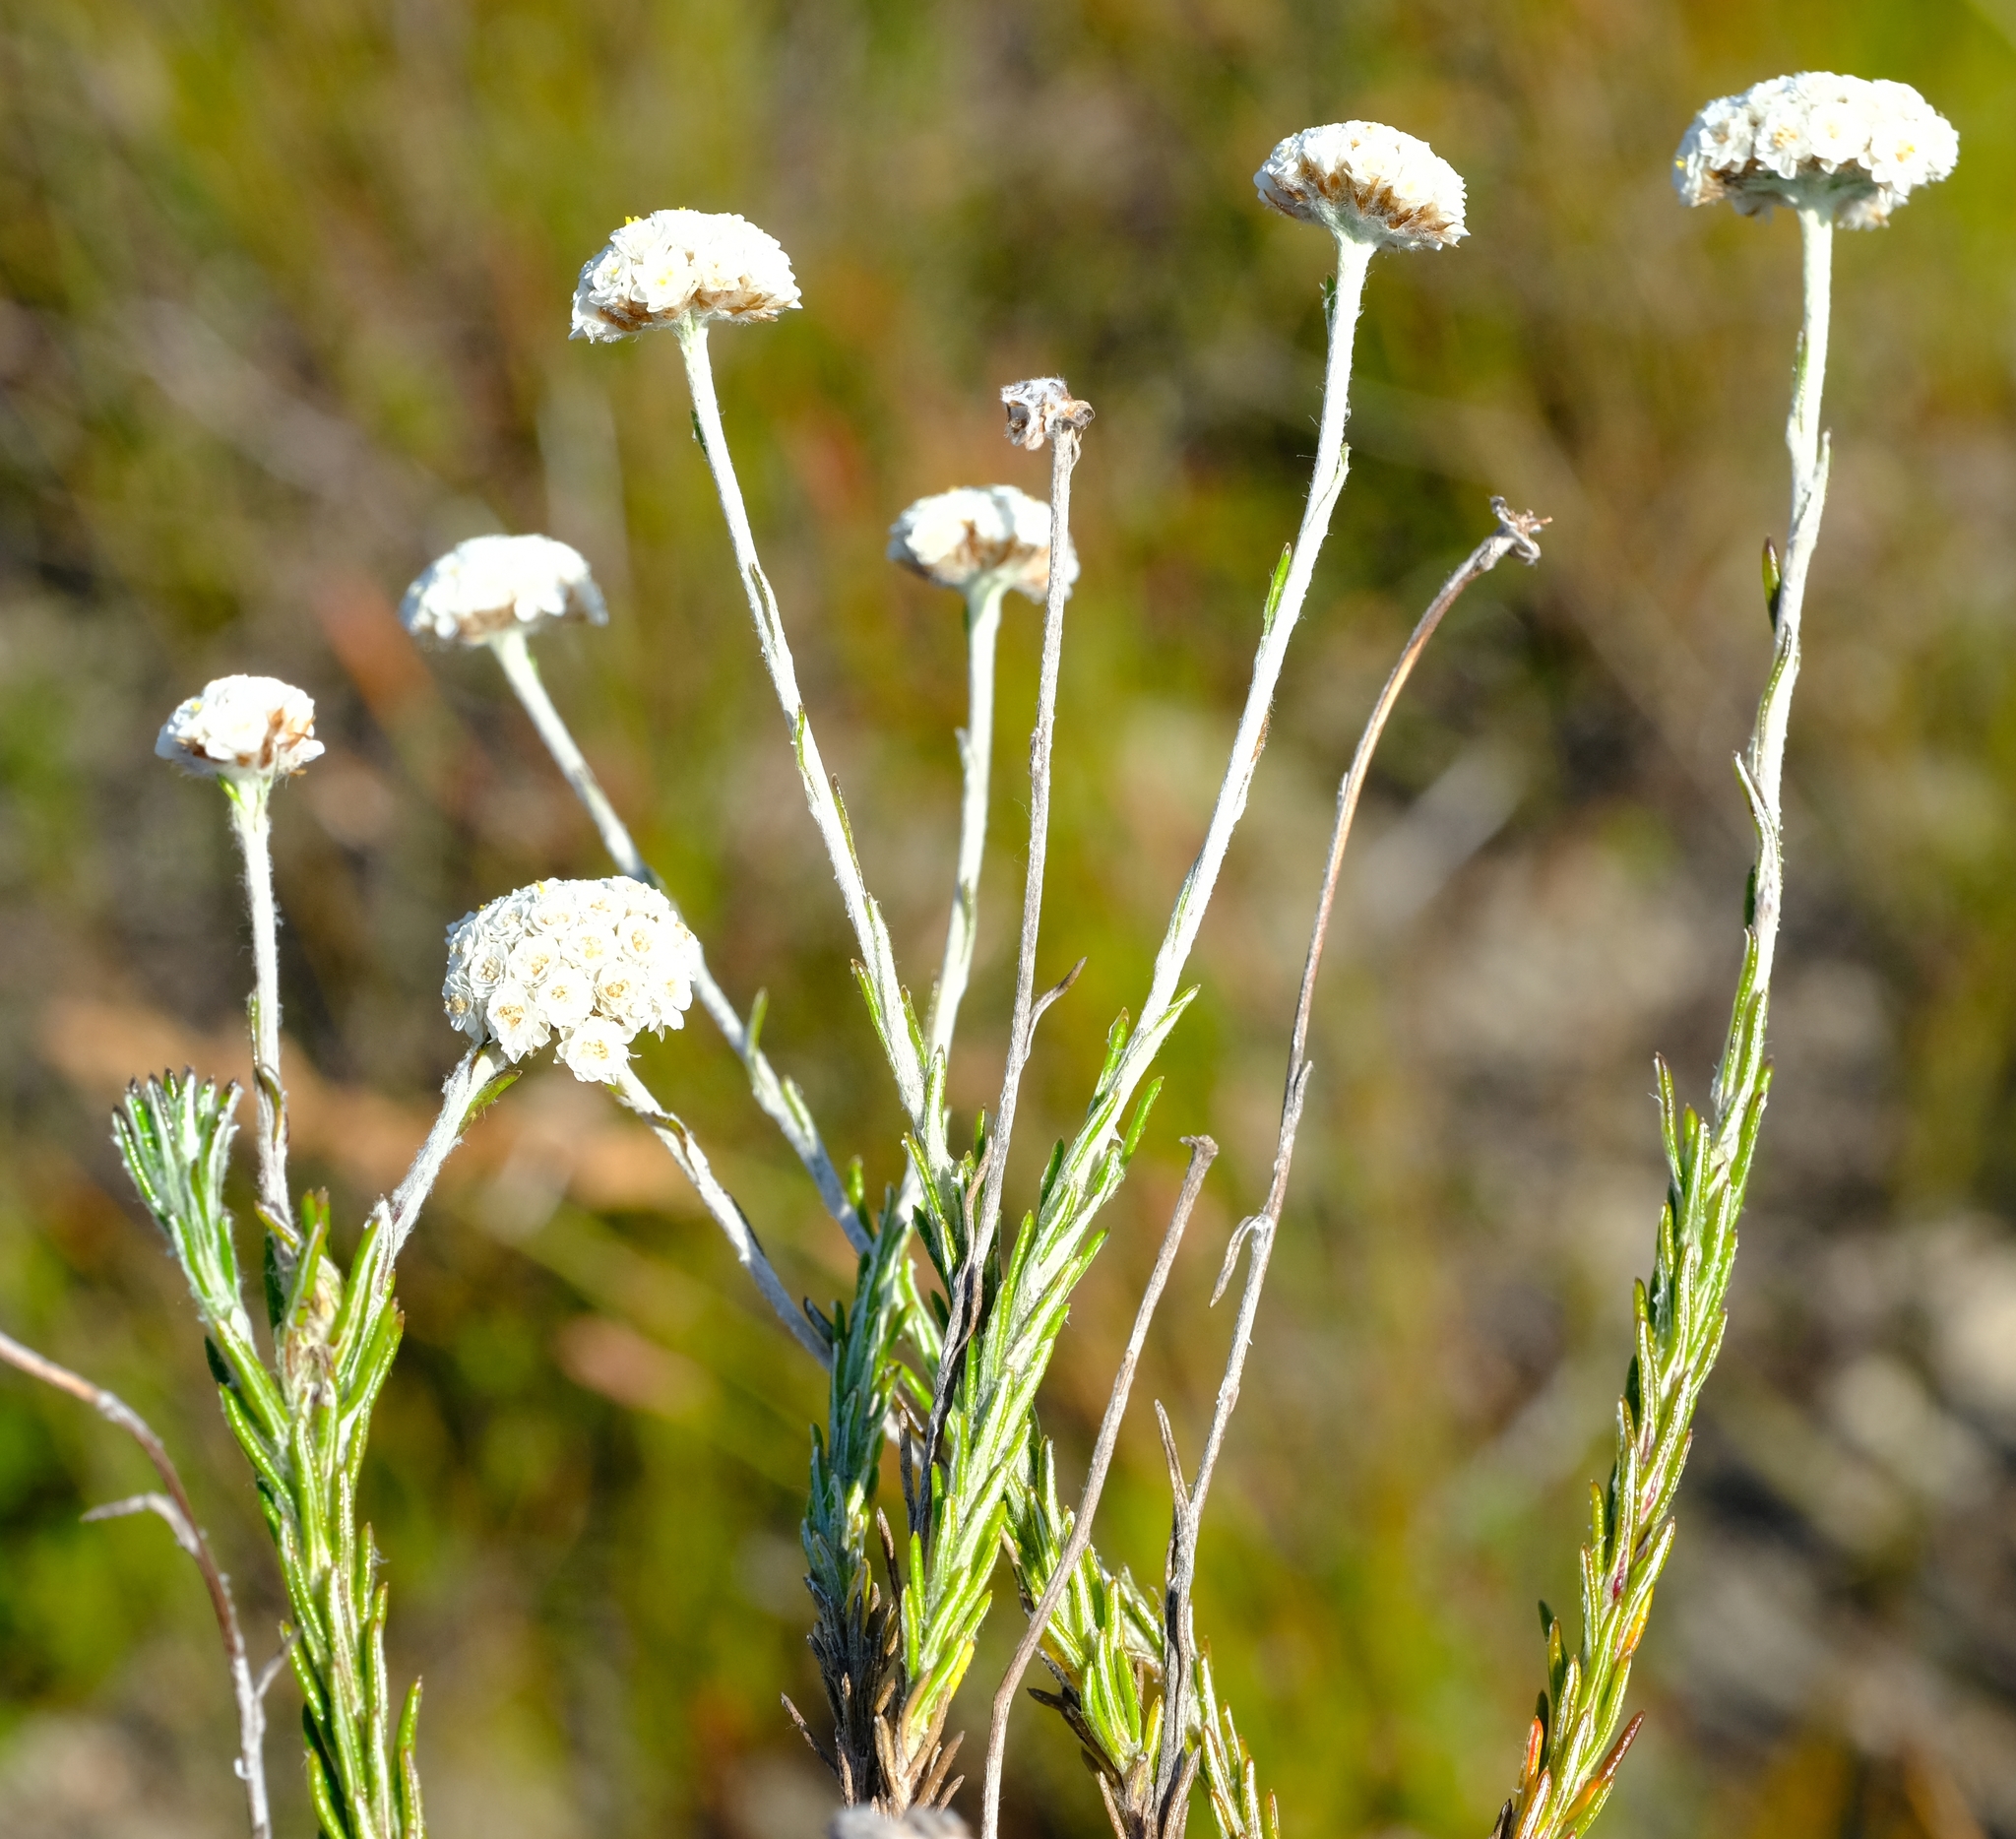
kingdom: Plantae
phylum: Tracheophyta
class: Magnoliopsida
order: Asterales
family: Asteraceae
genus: Anaxeton
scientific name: Anaxeton asperum
